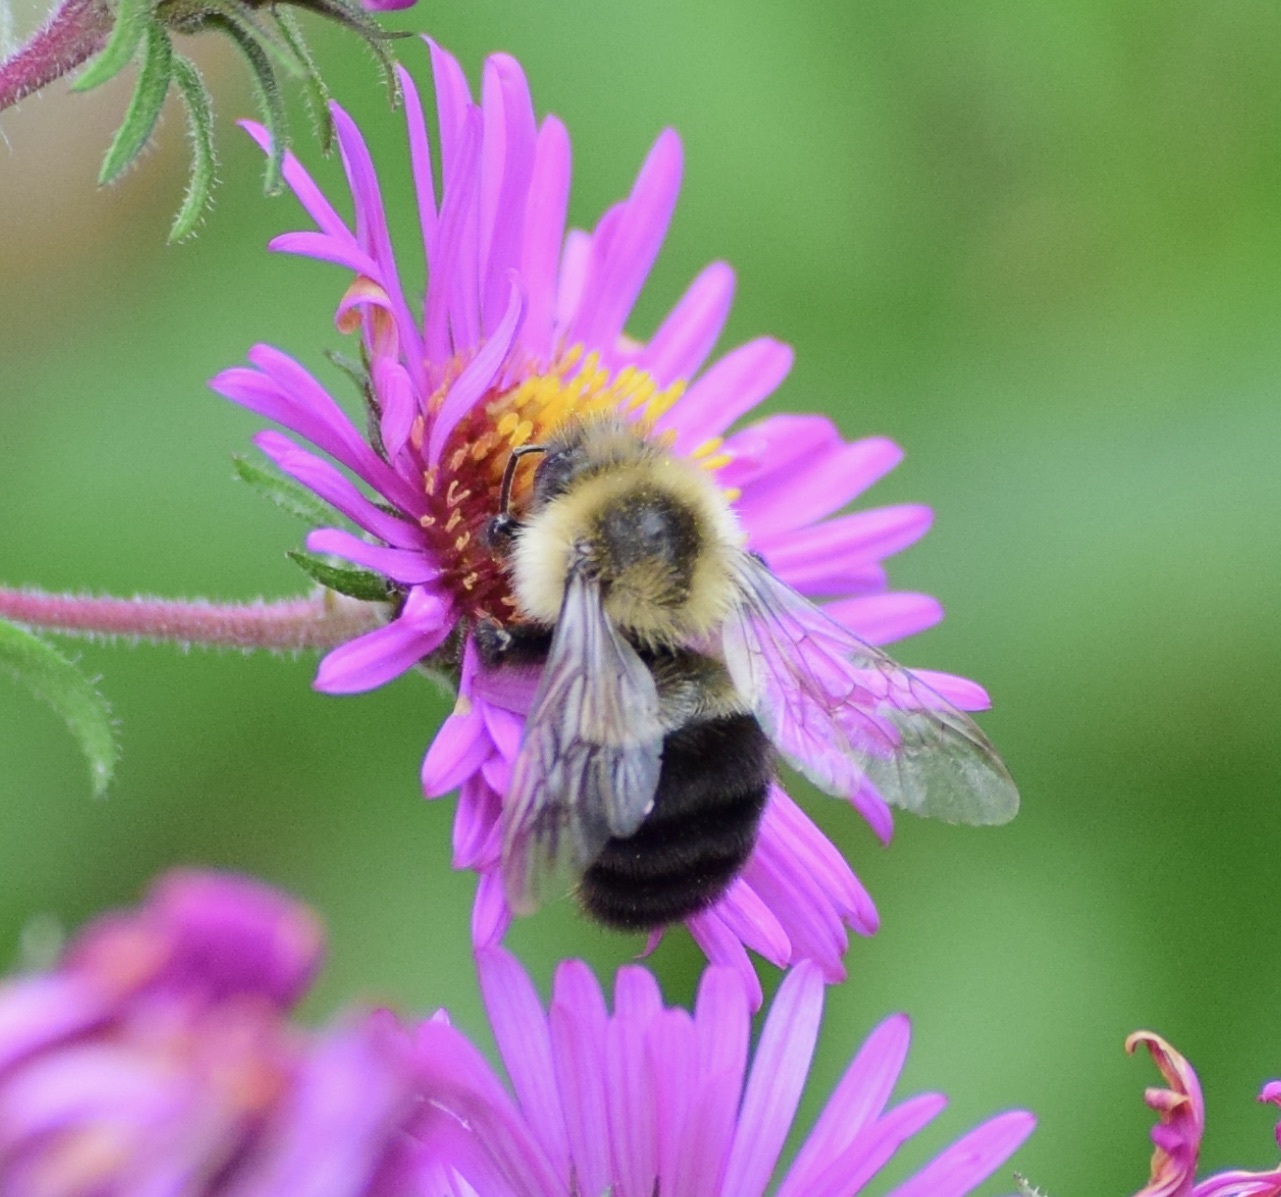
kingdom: Animalia
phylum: Arthropoda
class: Insecta
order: Hymenoptera
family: Apidae
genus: Bombus
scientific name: Bombus impatiens
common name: Common eastern bumble bee
